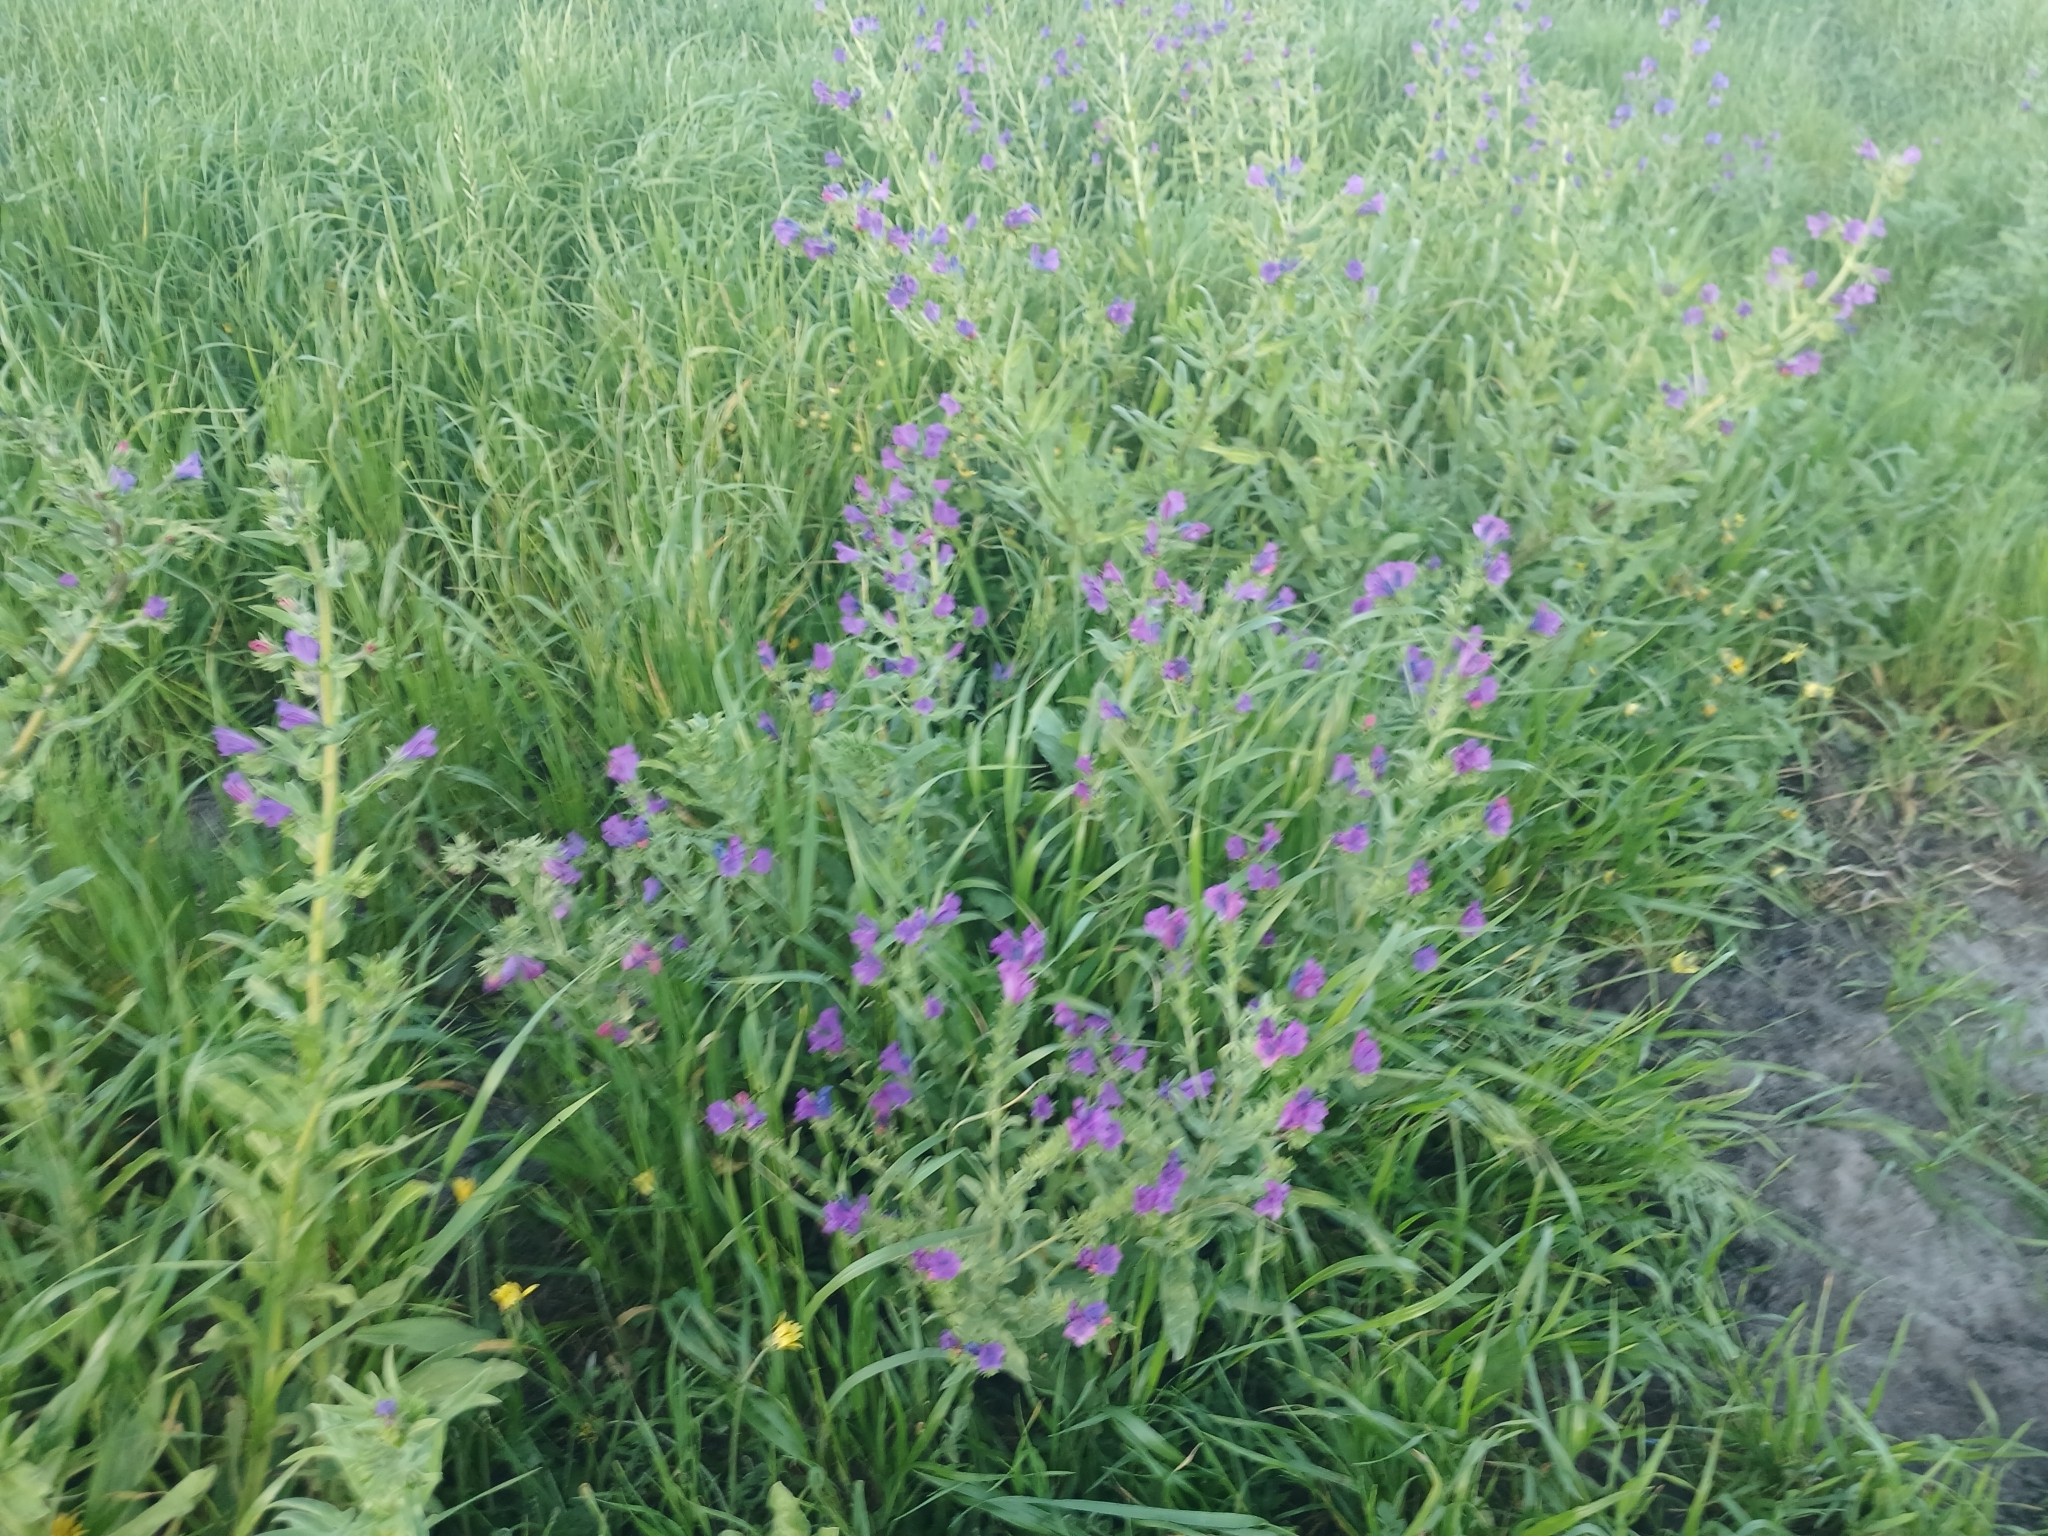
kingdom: Plantae
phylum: Tracheophyta
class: Magnoliopsida
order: Boraginales
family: Boraginaceae
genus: Echium
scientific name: Echium plantagineum
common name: Purple viper's-bugloss
